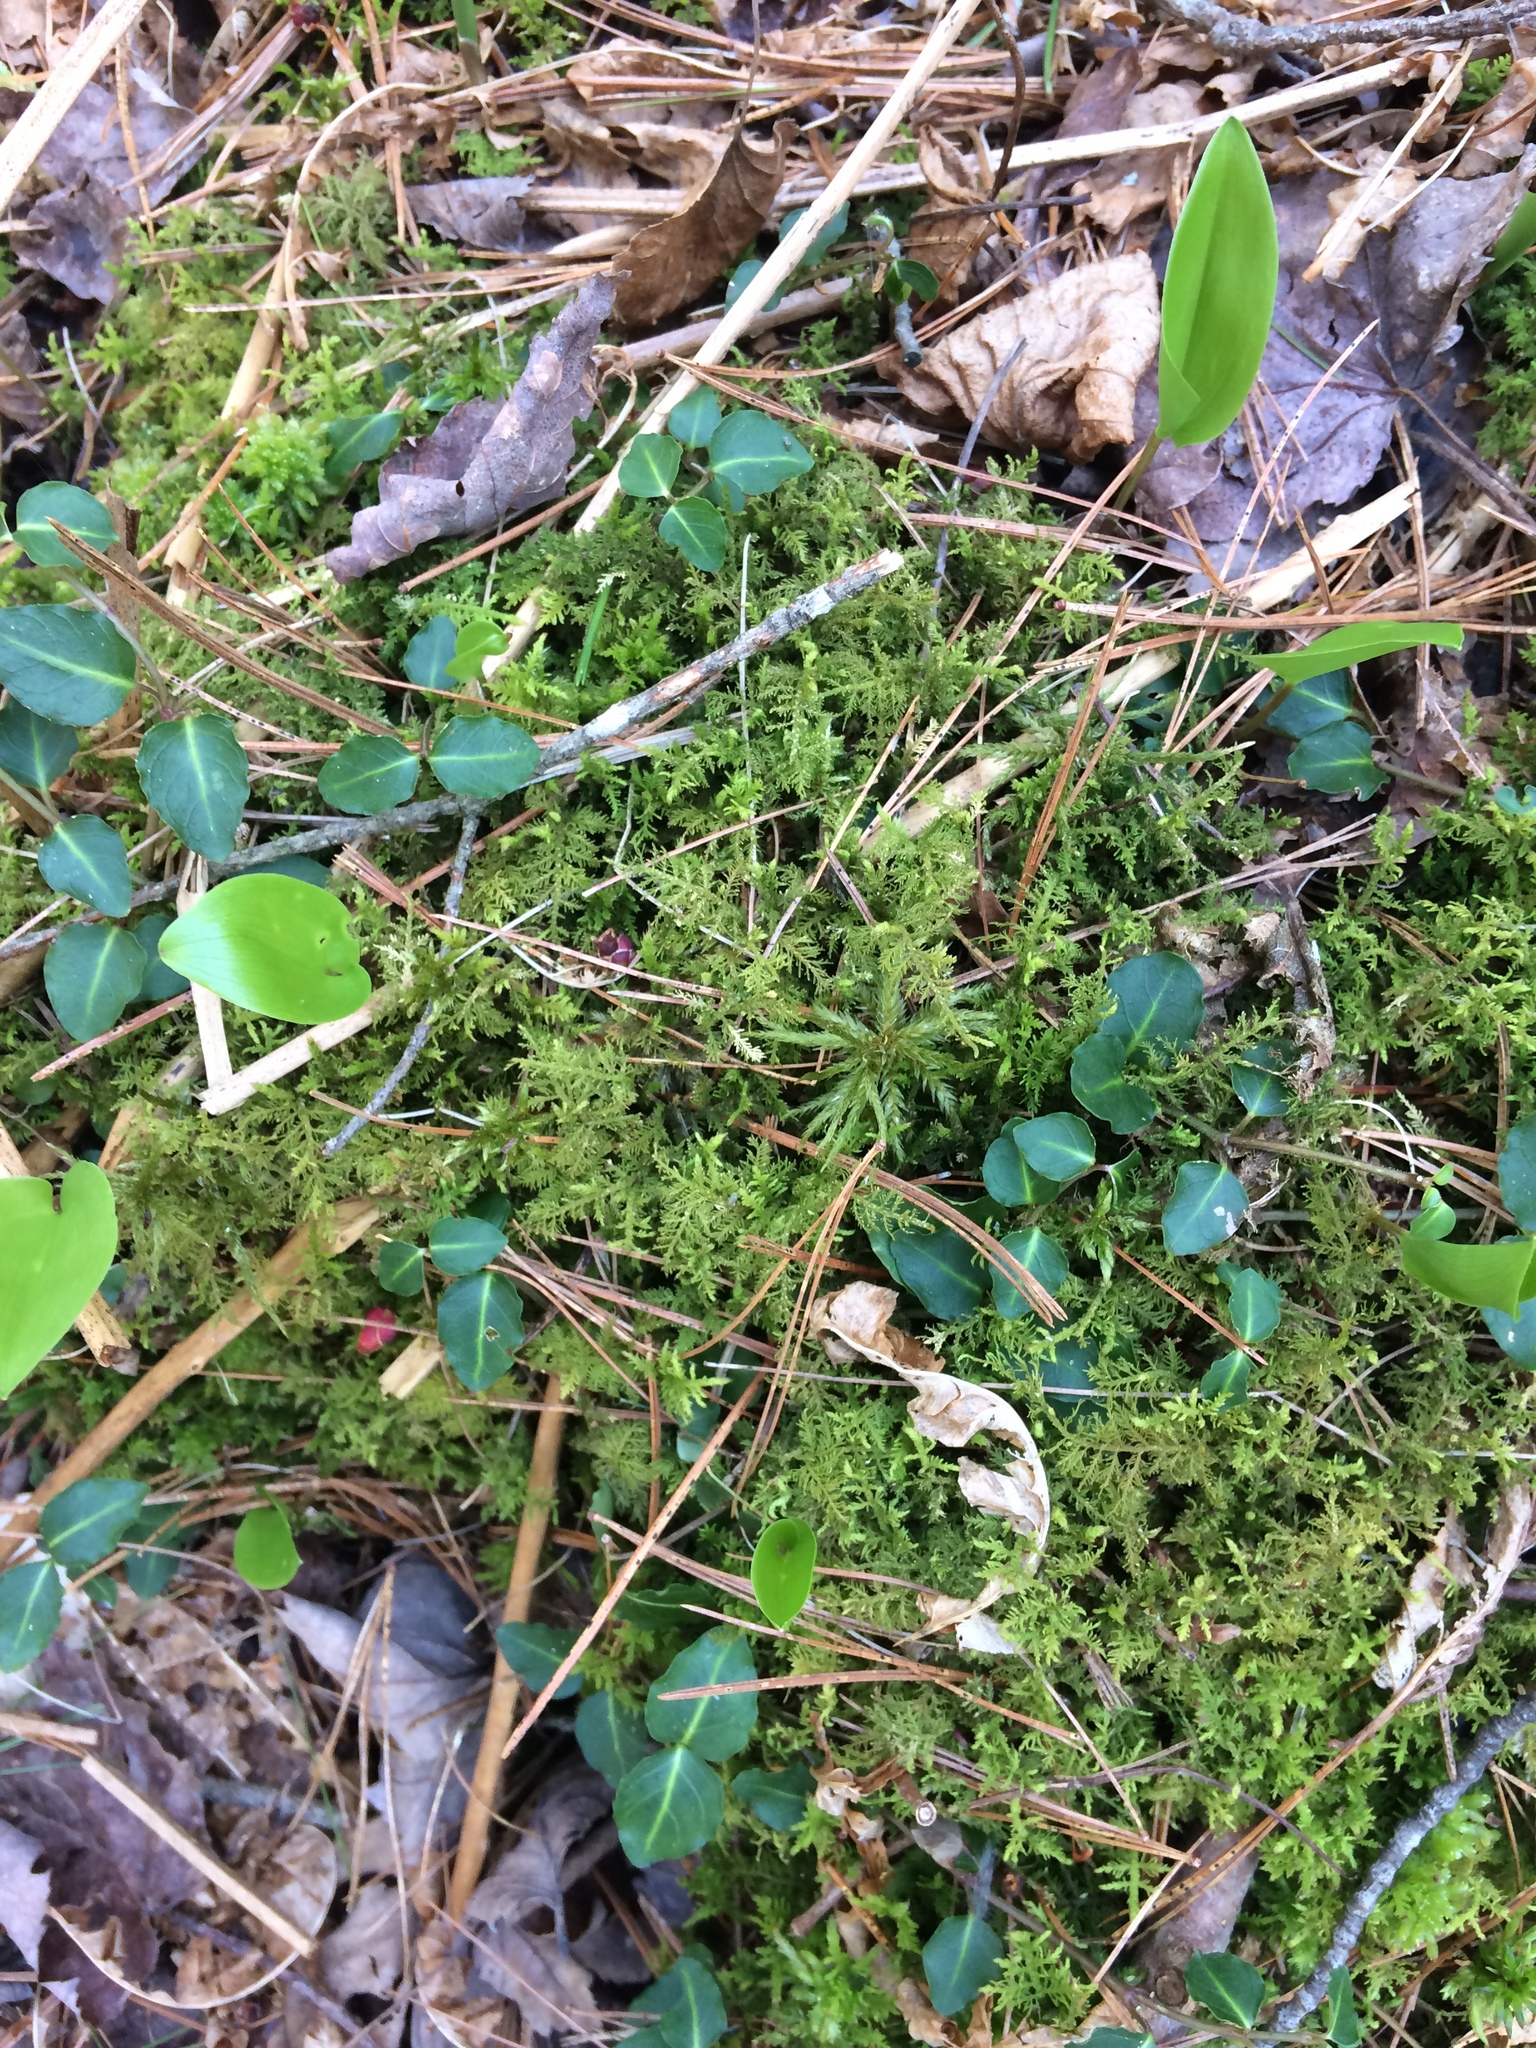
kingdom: Plantae
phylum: Tracheophyta
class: Magnoliopsida
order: Gentianales
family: Rubiaceae
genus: Mitchella
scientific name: Mitchella repens
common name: Partridge-berry
